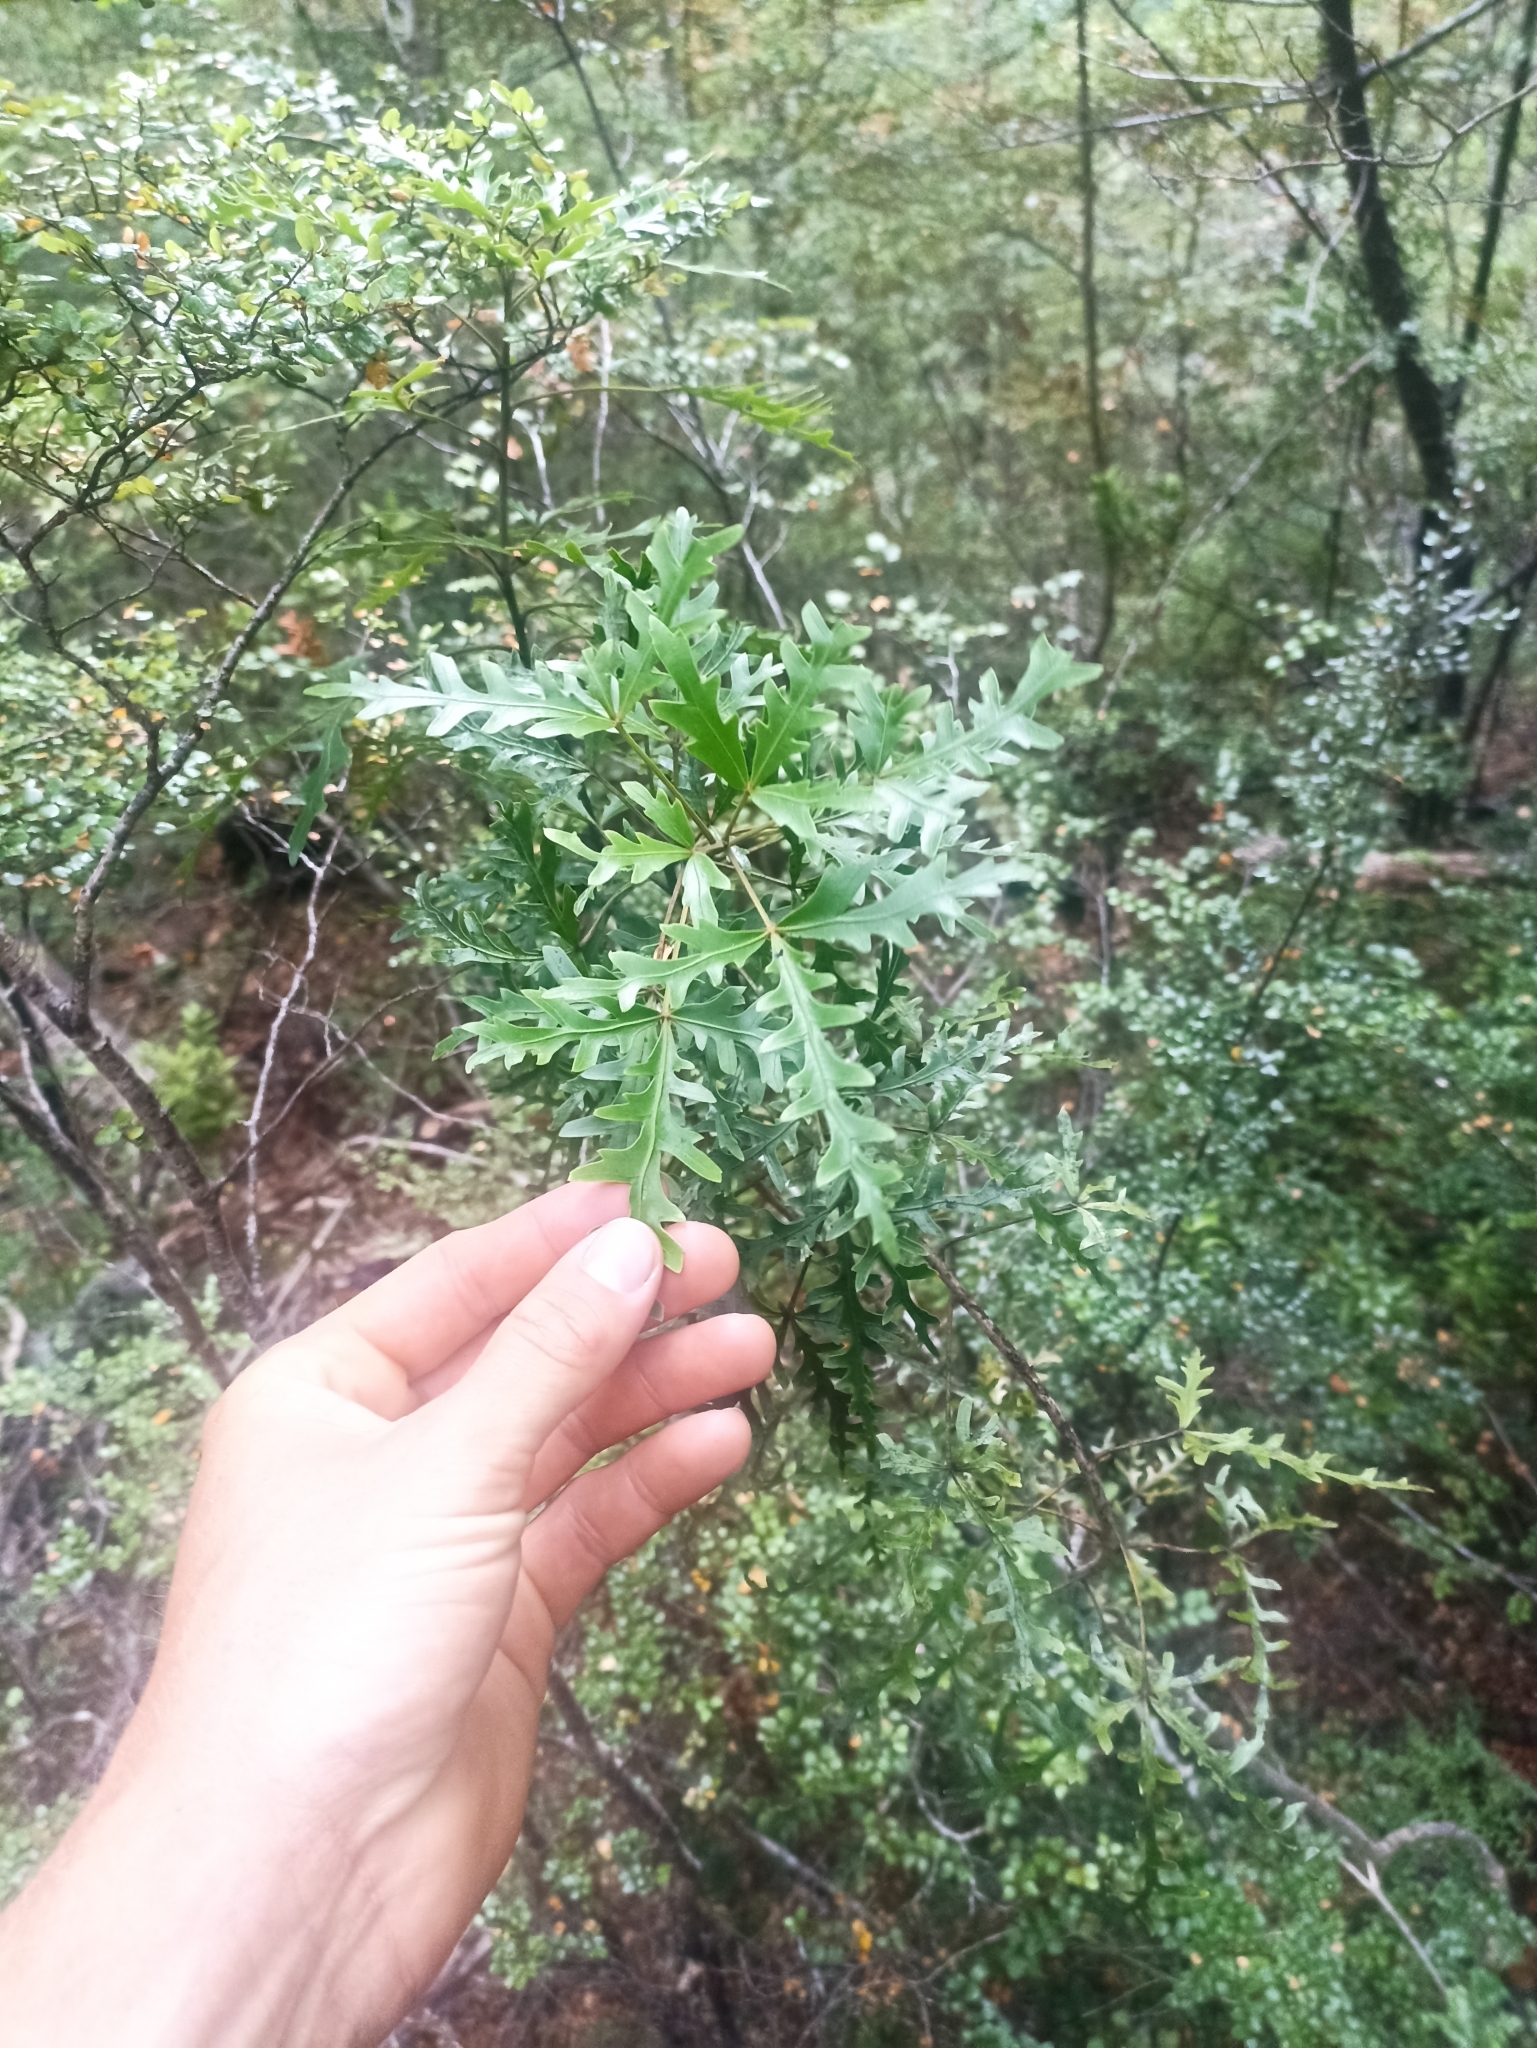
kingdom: Plantae
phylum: Tracheophyta
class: Magnoliopsida
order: Apiales
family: Araliaceae
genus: Raukaua
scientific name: Raukaua simplex
